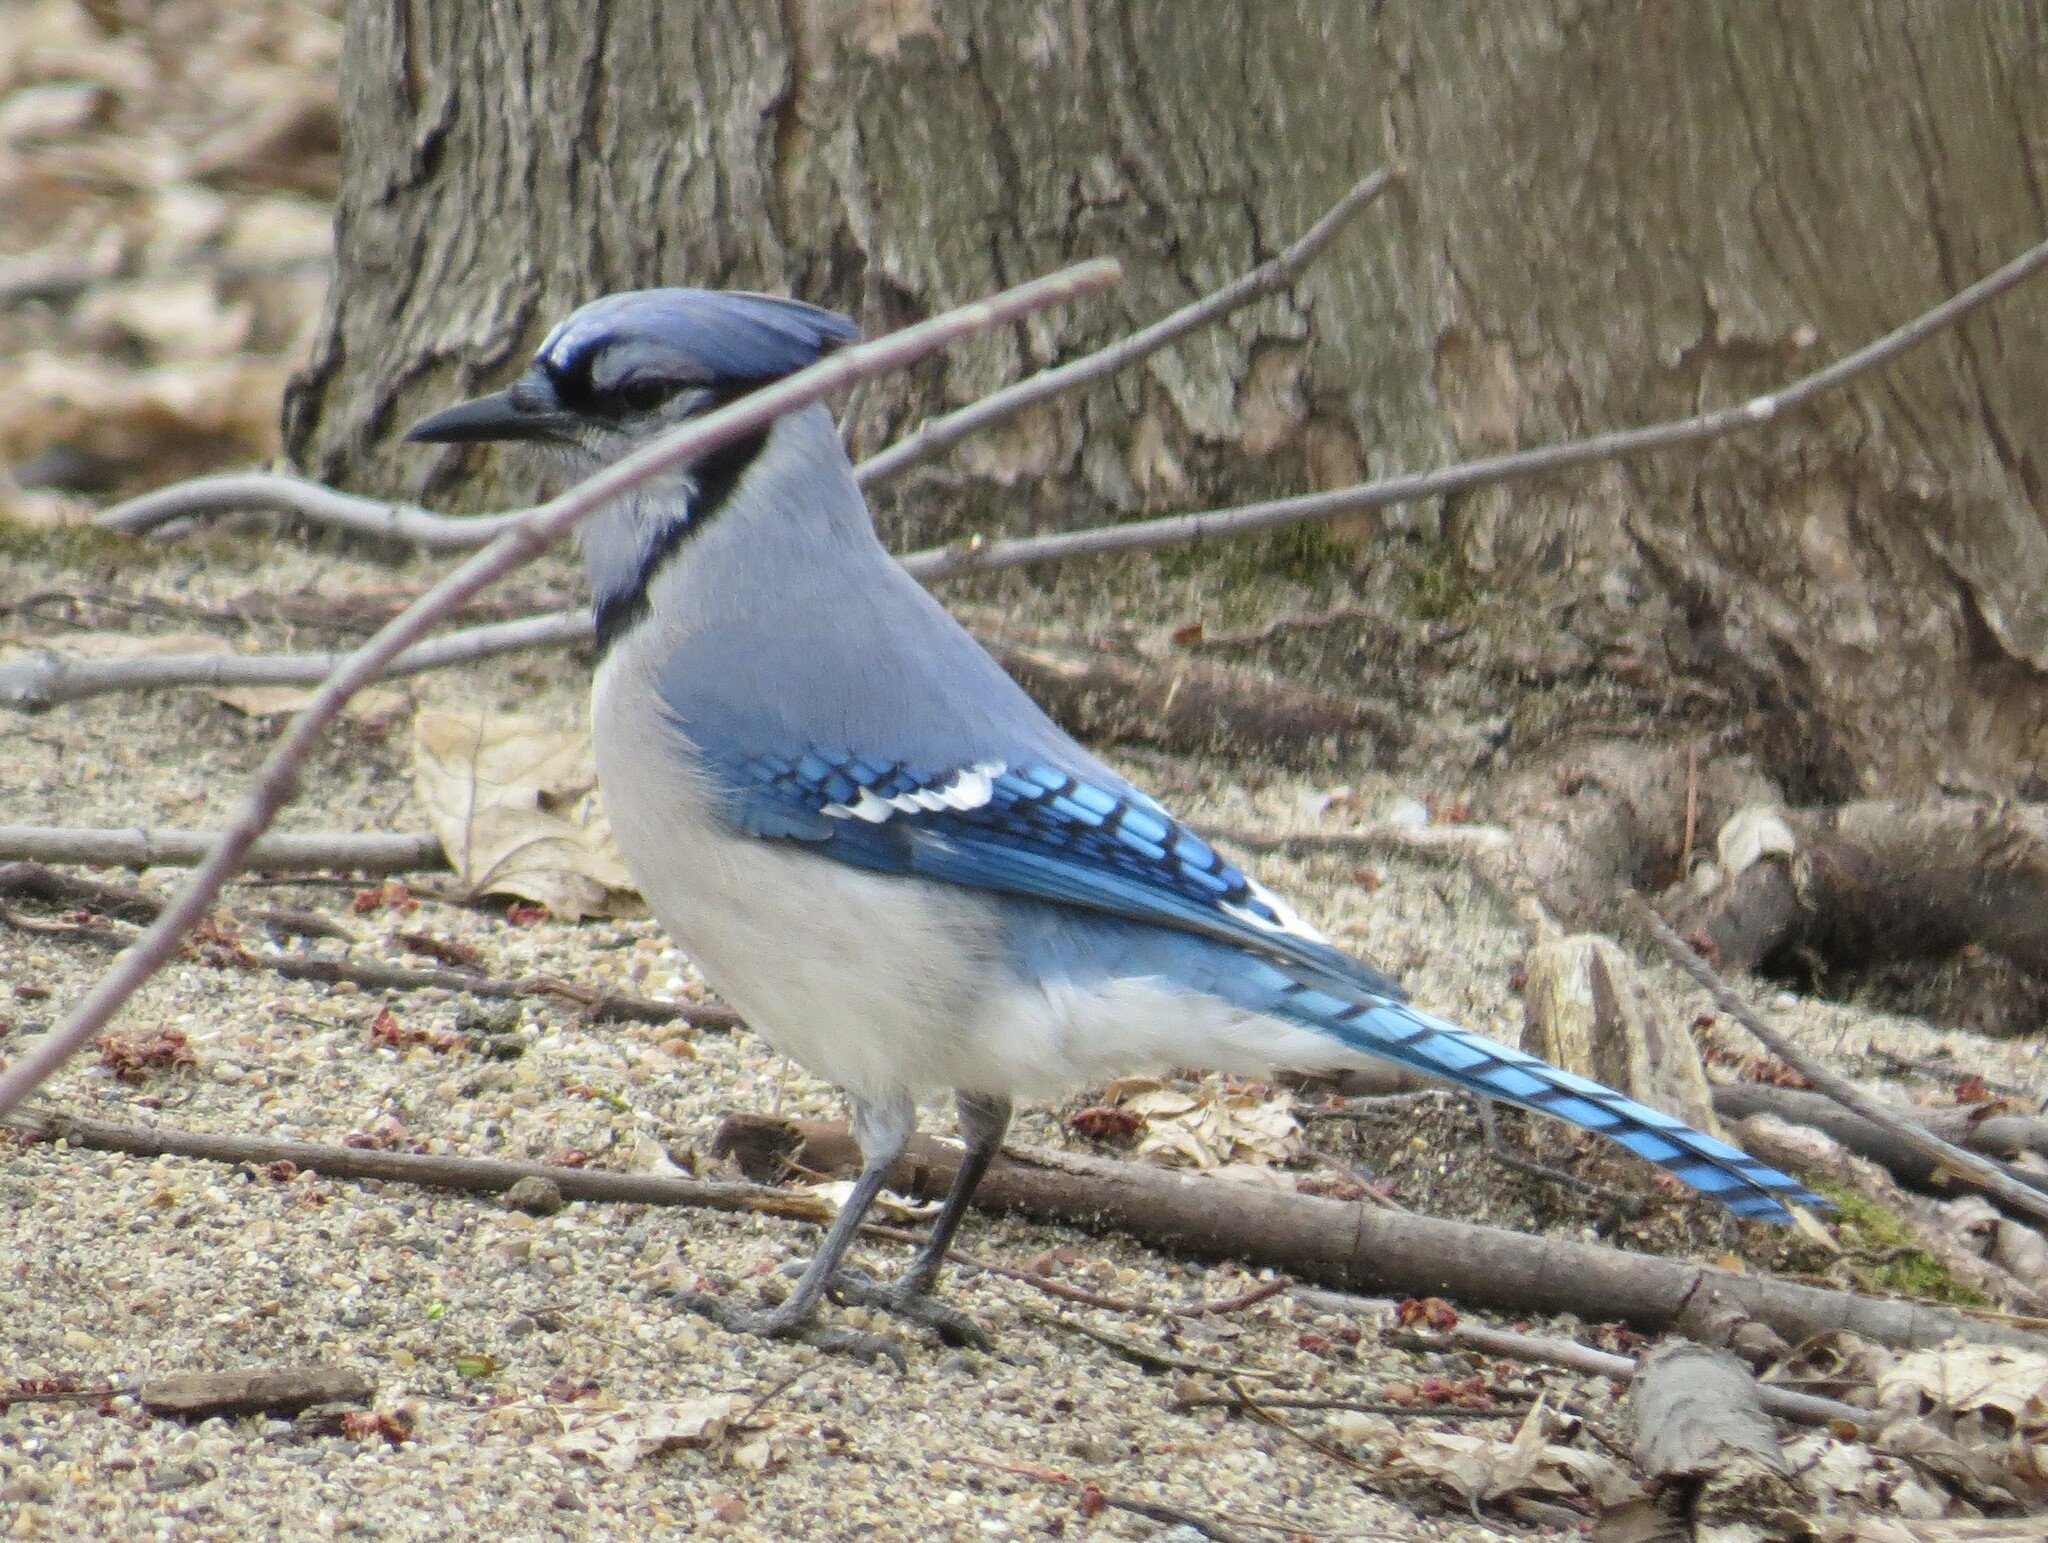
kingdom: Animalia
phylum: Chordata
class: Aves
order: Passeriformes
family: Corvidae
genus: Cyanocitta
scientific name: Cyanocitta cristata
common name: Blue jay
